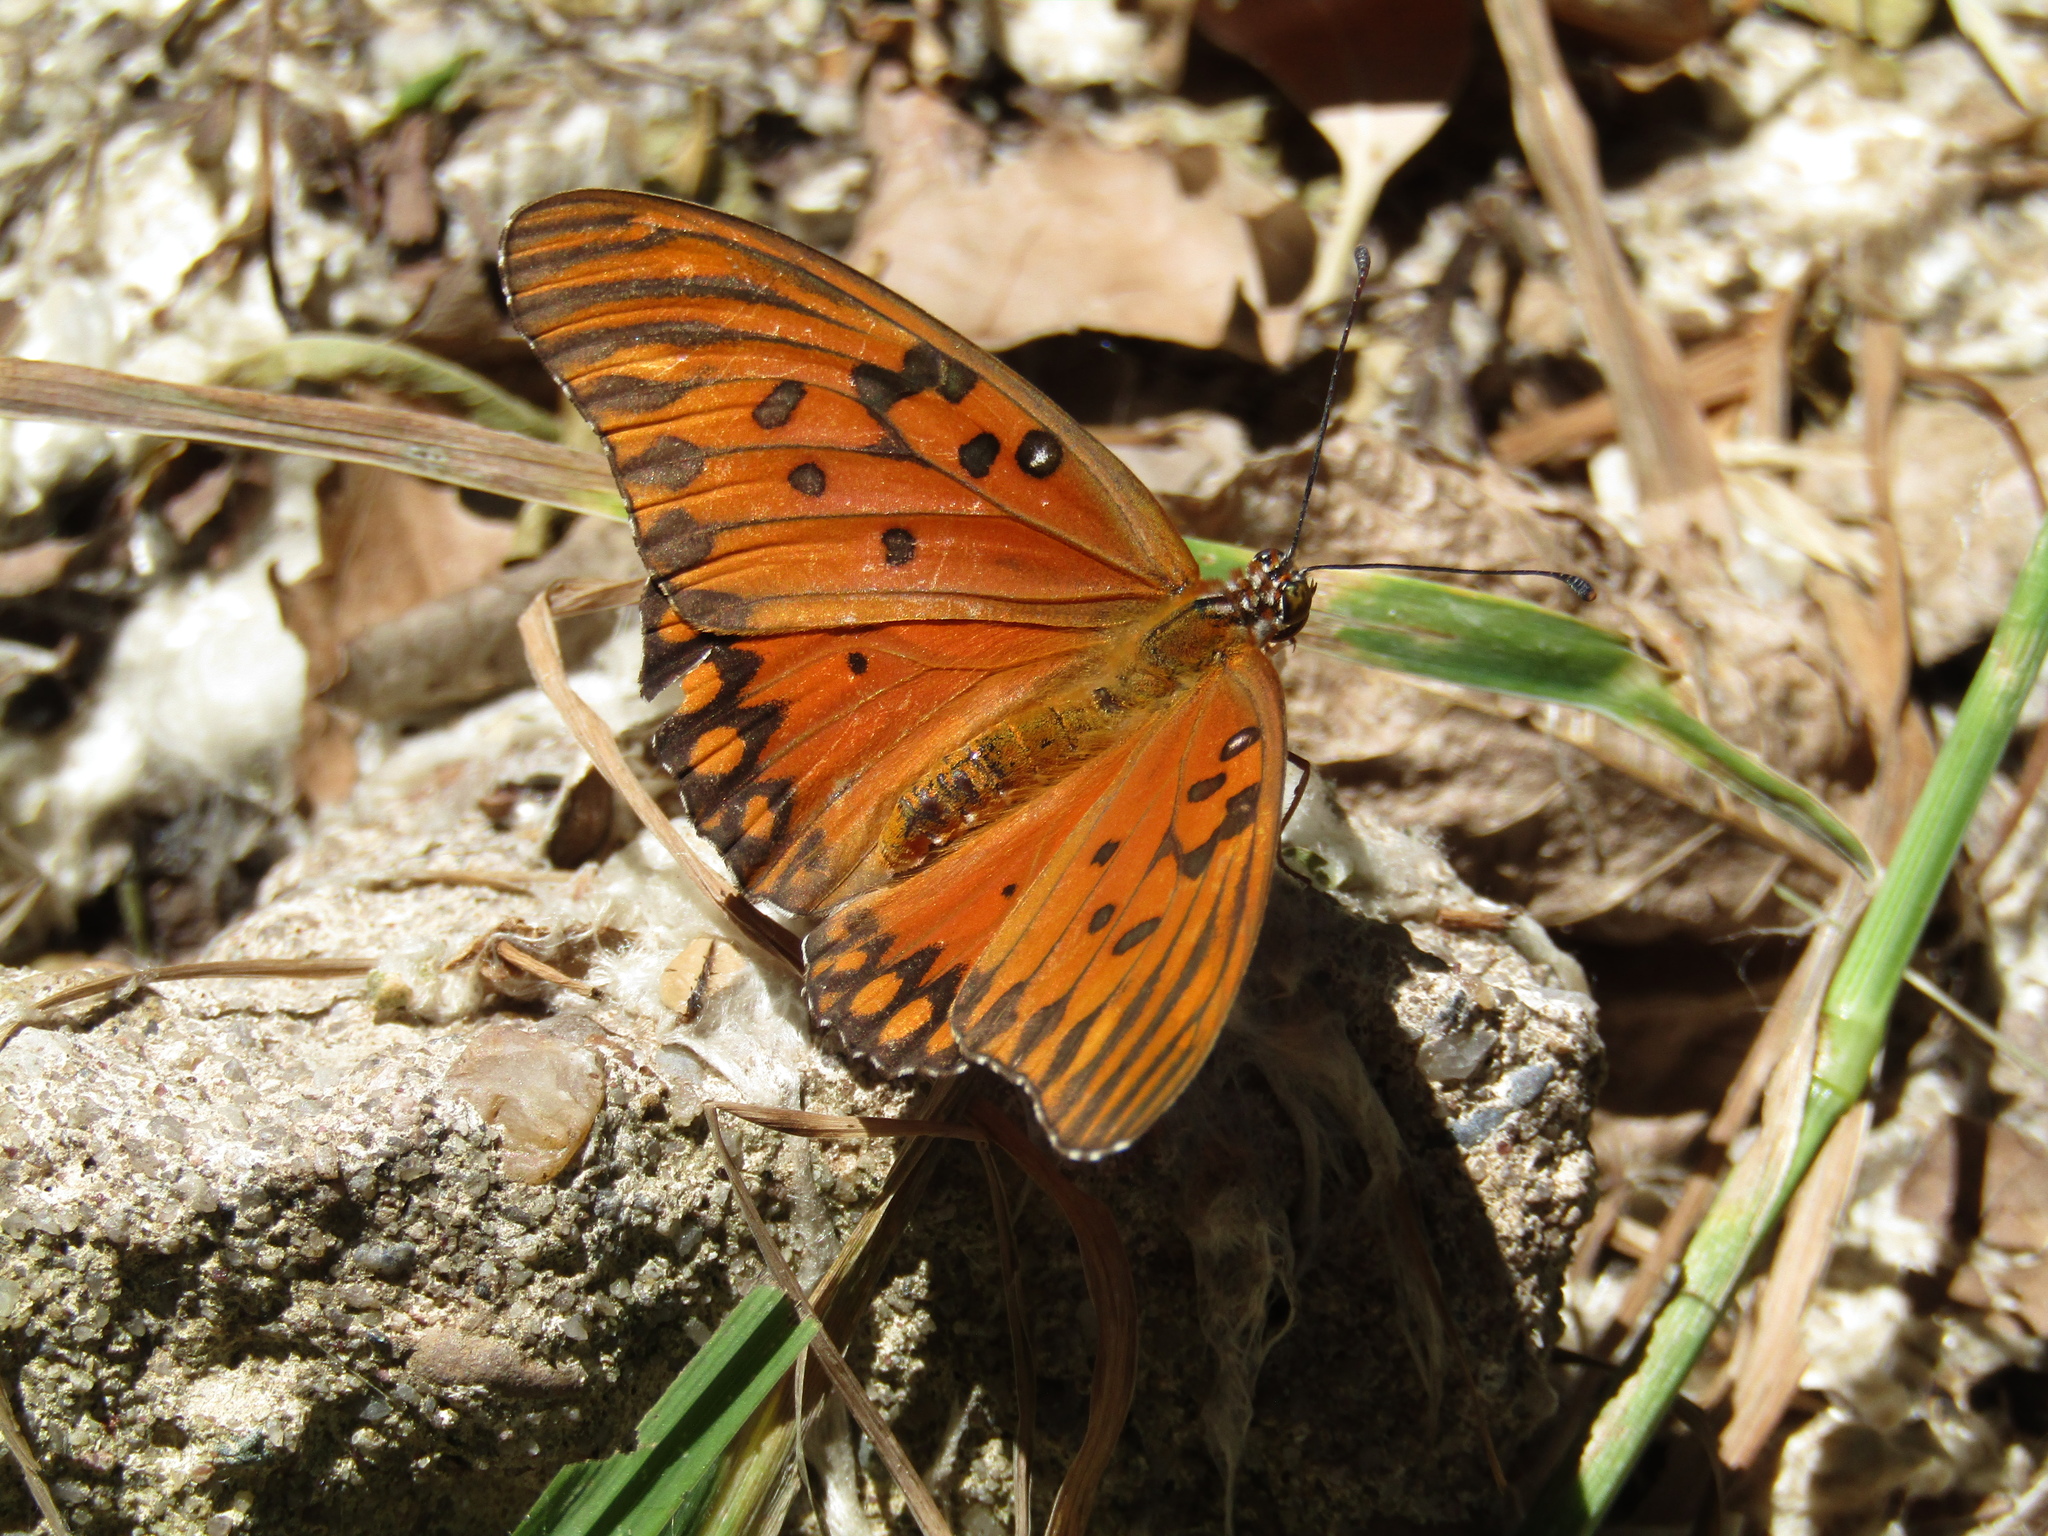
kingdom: Animalia
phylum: Arthropoda
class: Insecta
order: Lepidoptera
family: Nymphalidae
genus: Dione
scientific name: Dione vanillae
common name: Gulf fritillary
